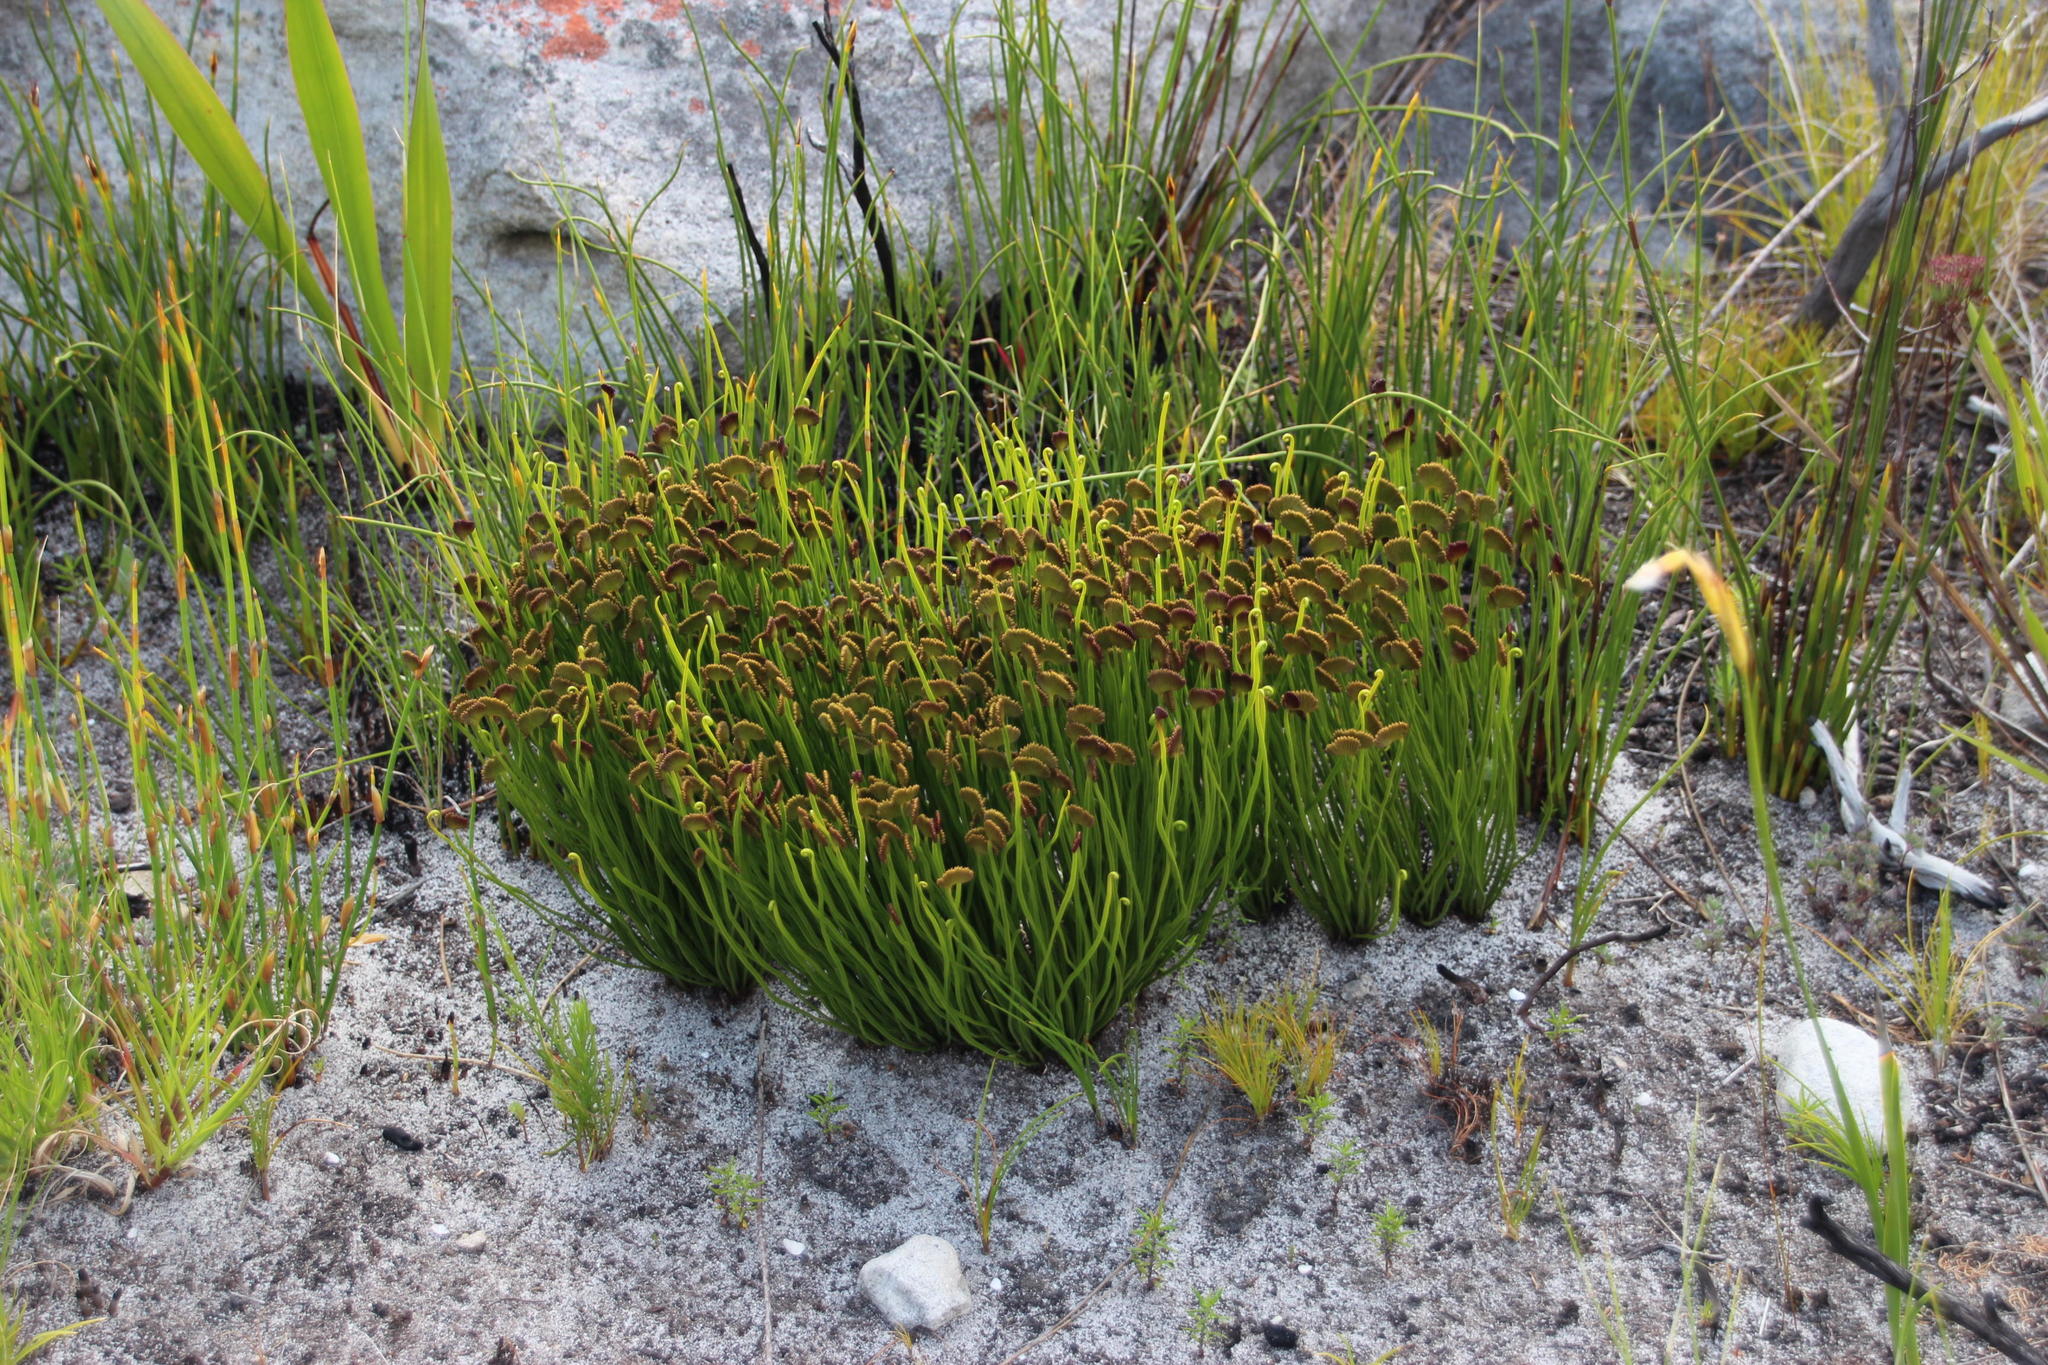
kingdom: Plantae
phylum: Tracheophyta
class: Polypodiopsida
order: Schizaeales
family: Schizaeaceae
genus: Schizaea
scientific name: Schizaea pectinata
